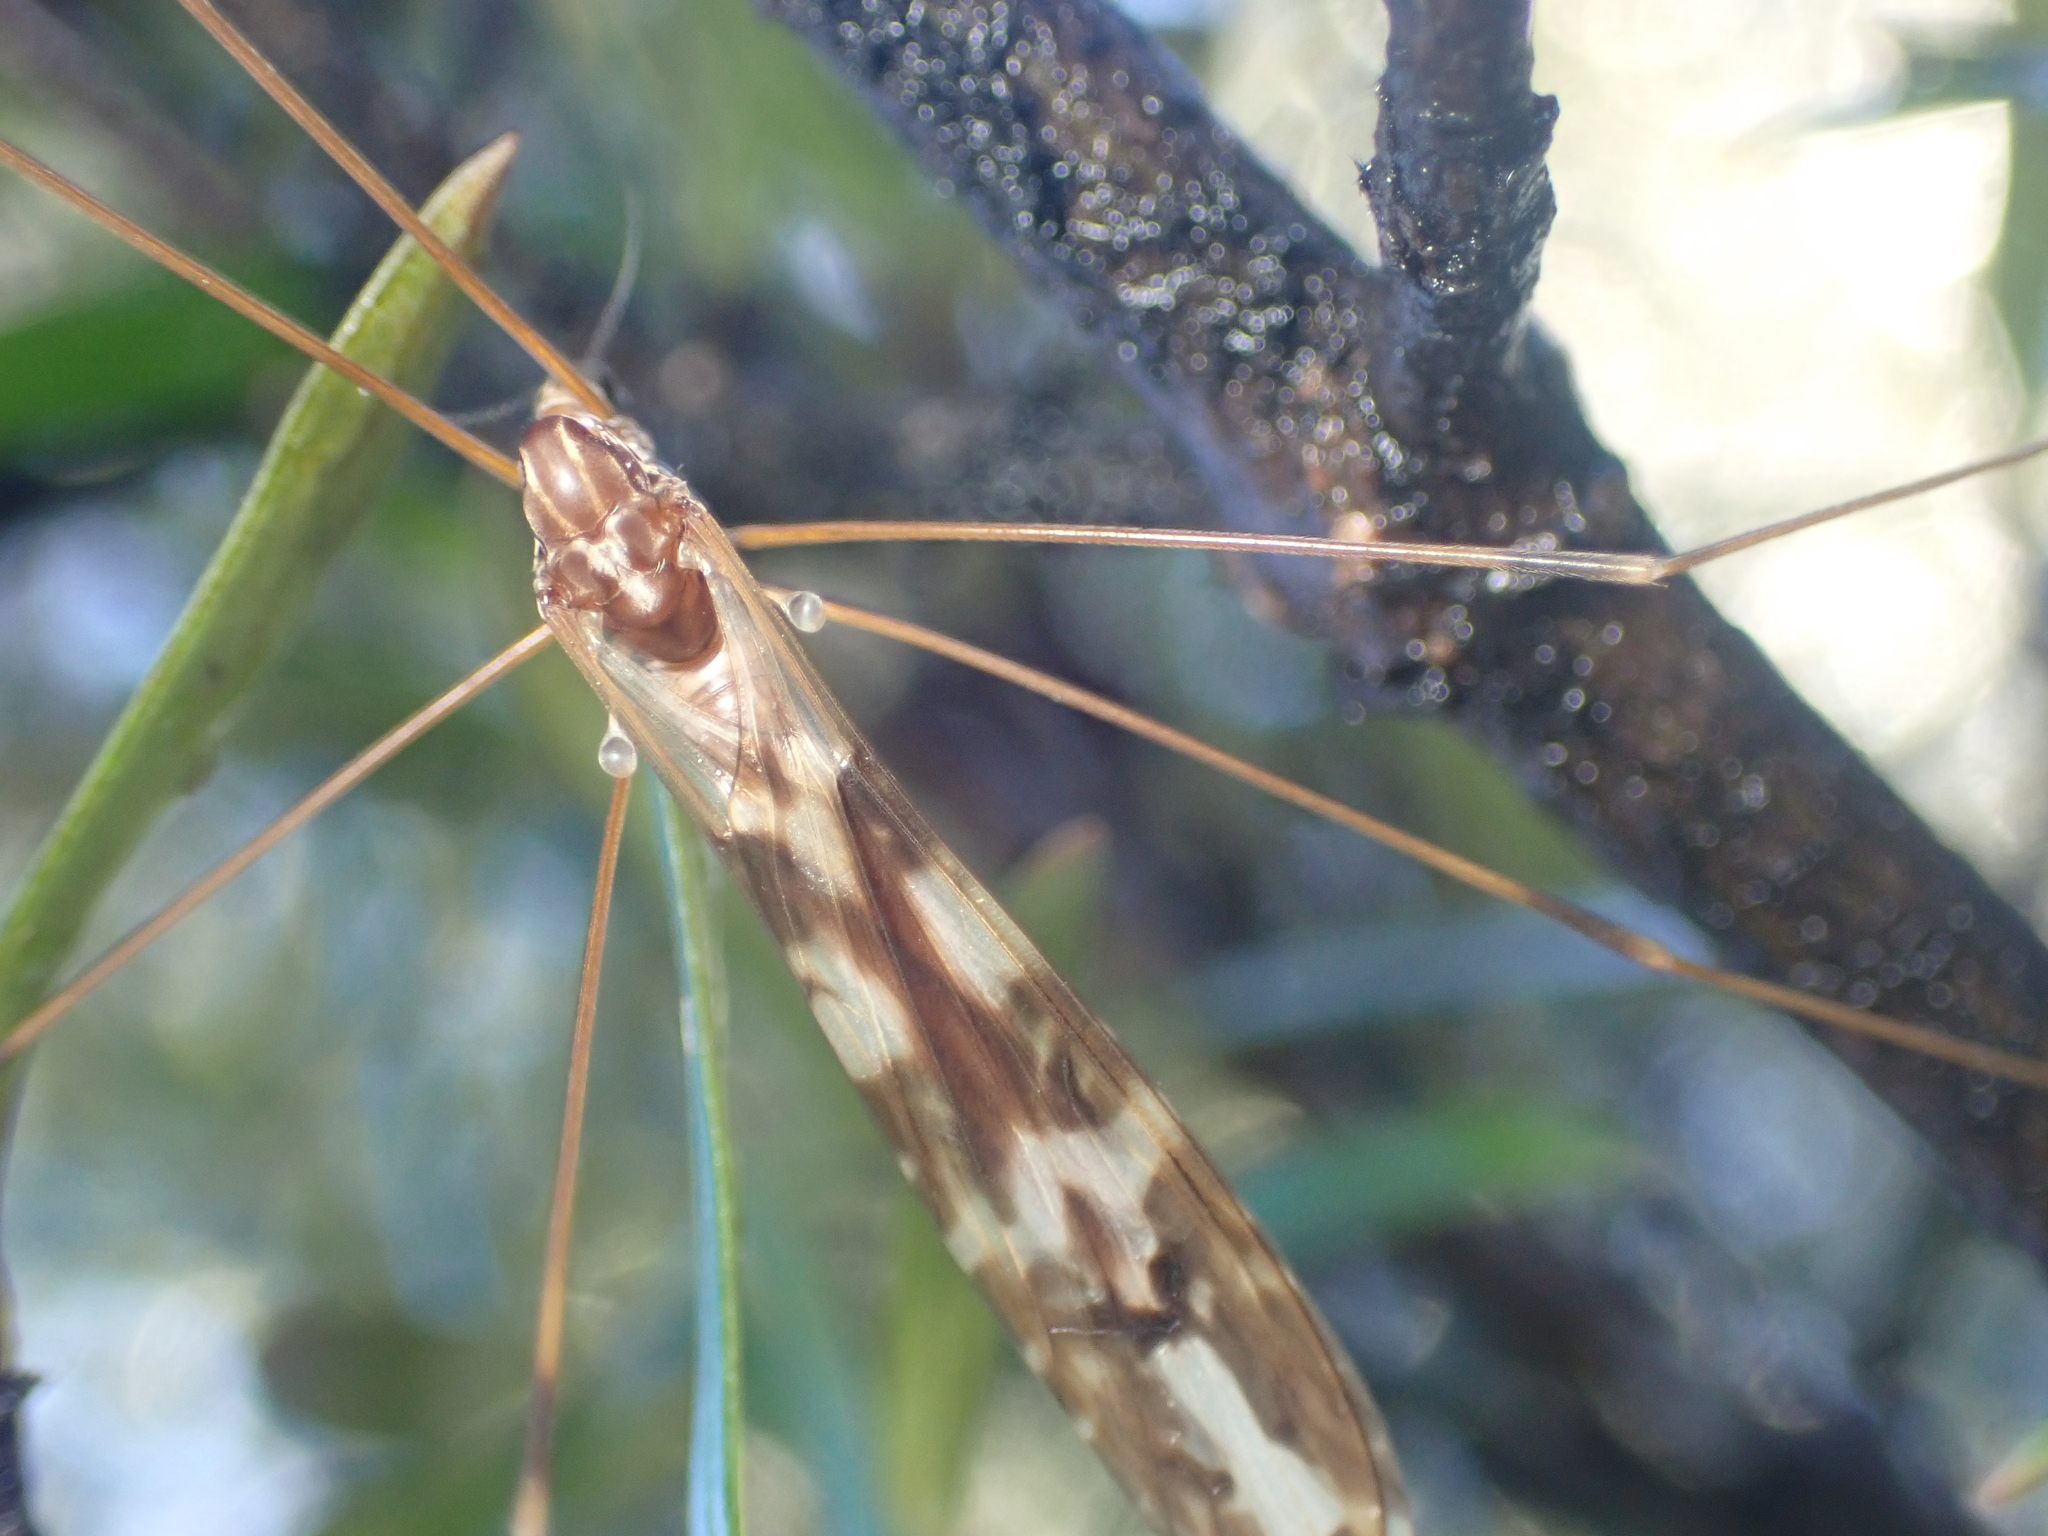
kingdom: Animalia
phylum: Arthropoda
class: Insecta
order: Diptera
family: Limoniidae
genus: Discobola
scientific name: Discobola dohrni
